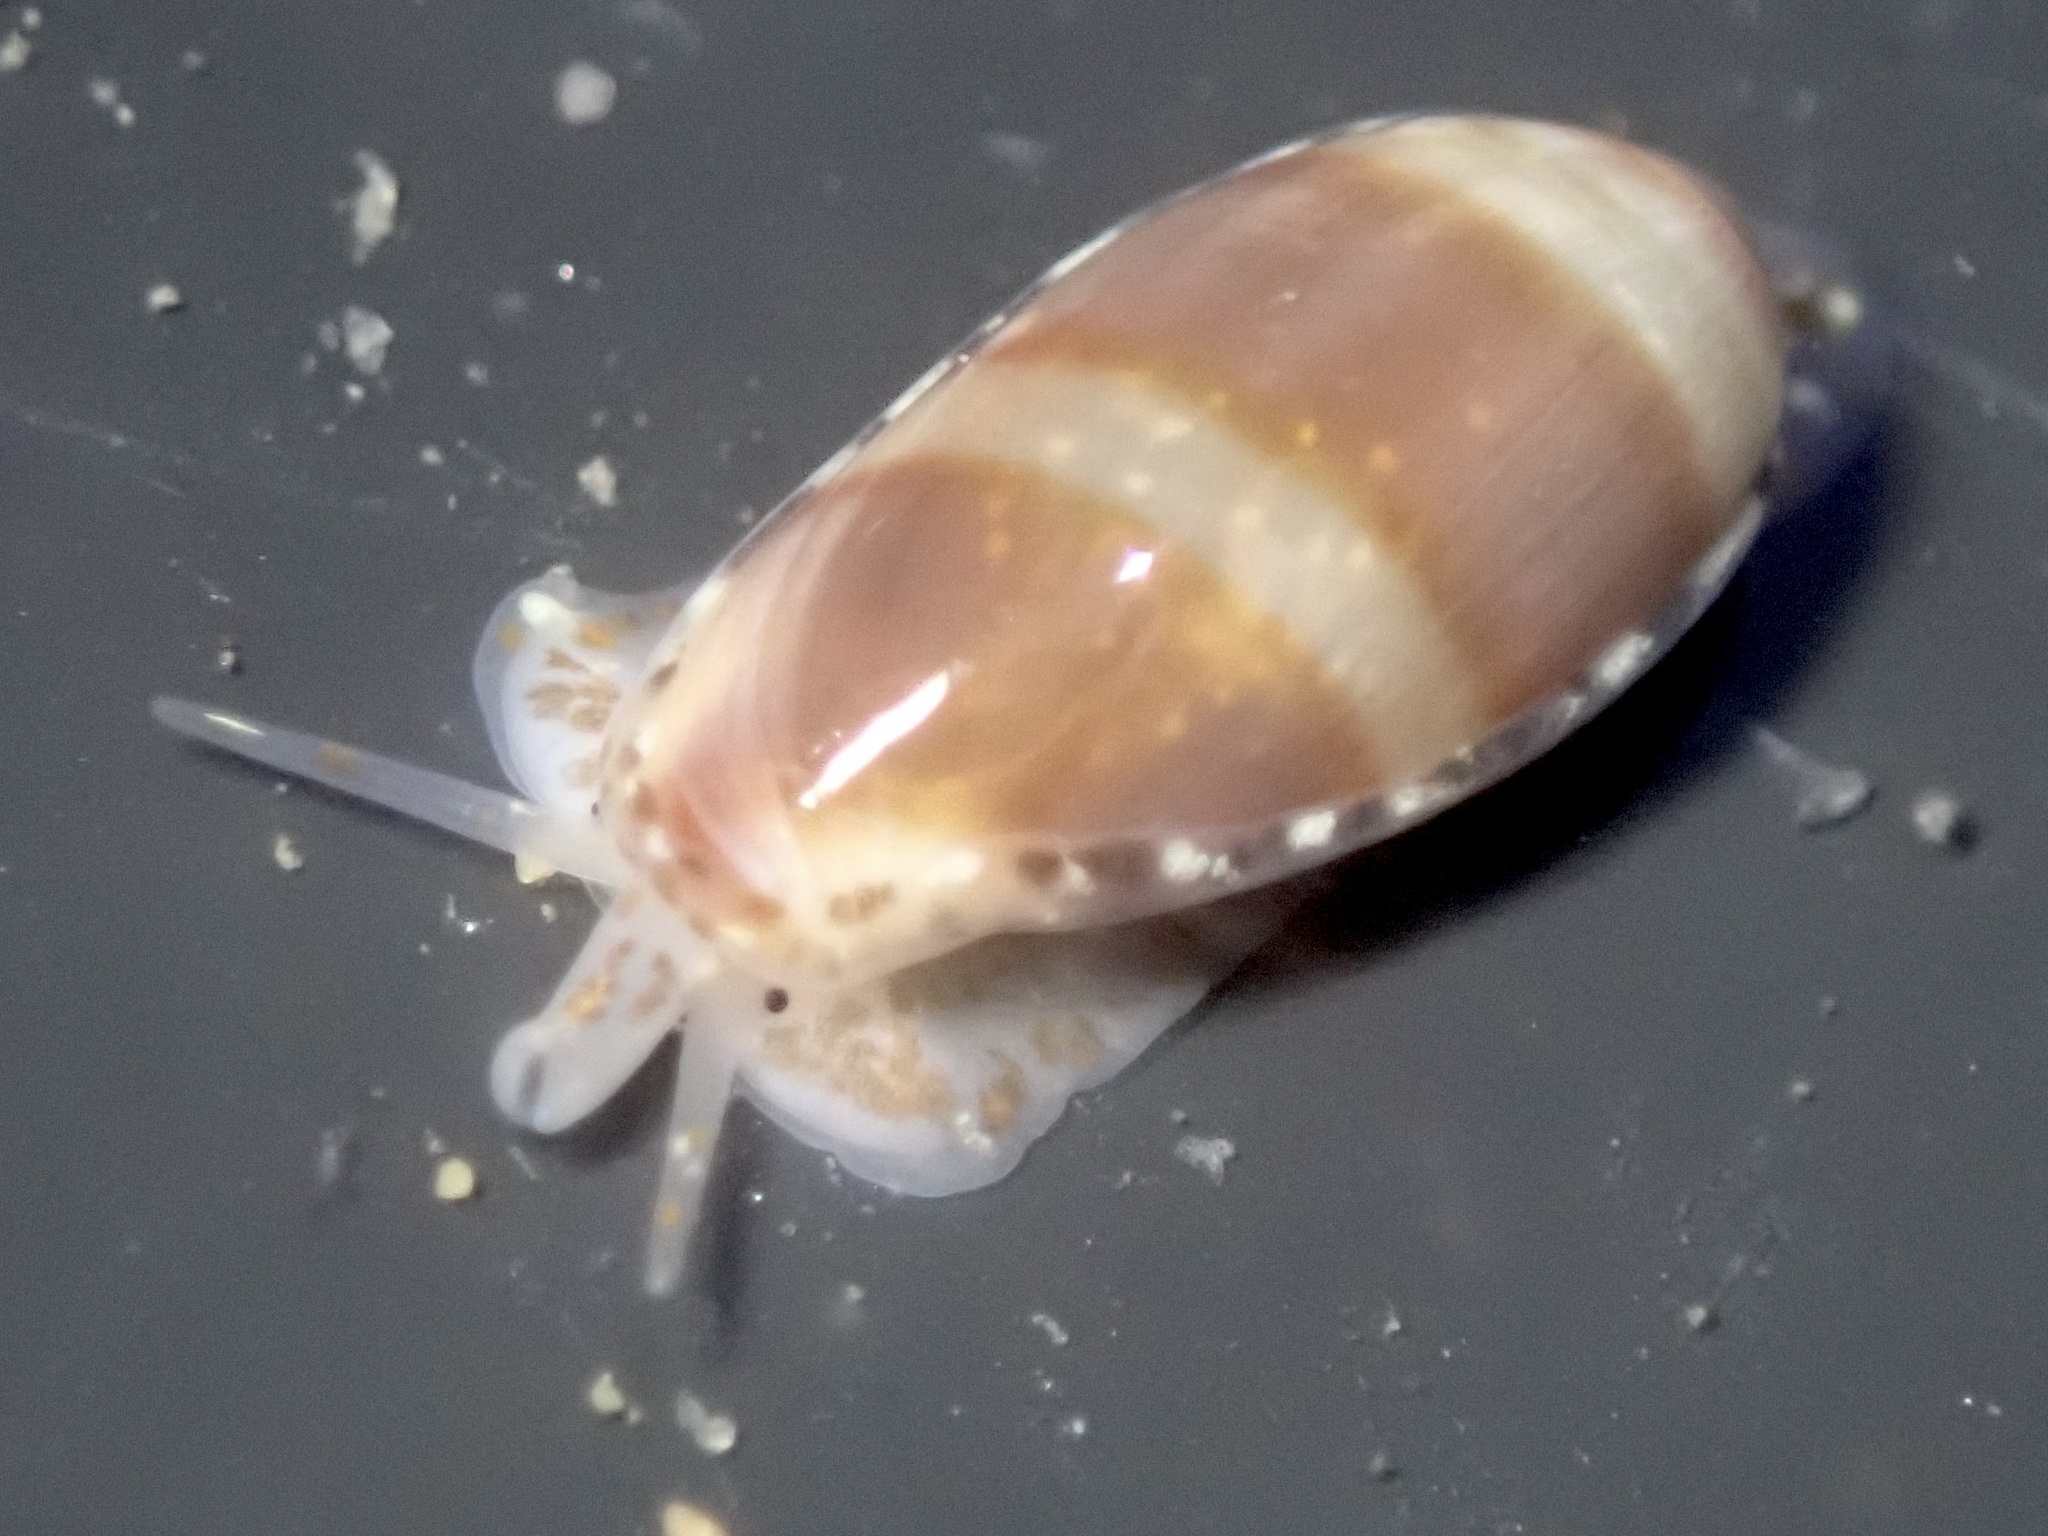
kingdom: Animalia
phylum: Mollusca
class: Gastropoda
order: Neogastropoda
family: Marginellidae
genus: Volvarina
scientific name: Volvarina taeniolata
